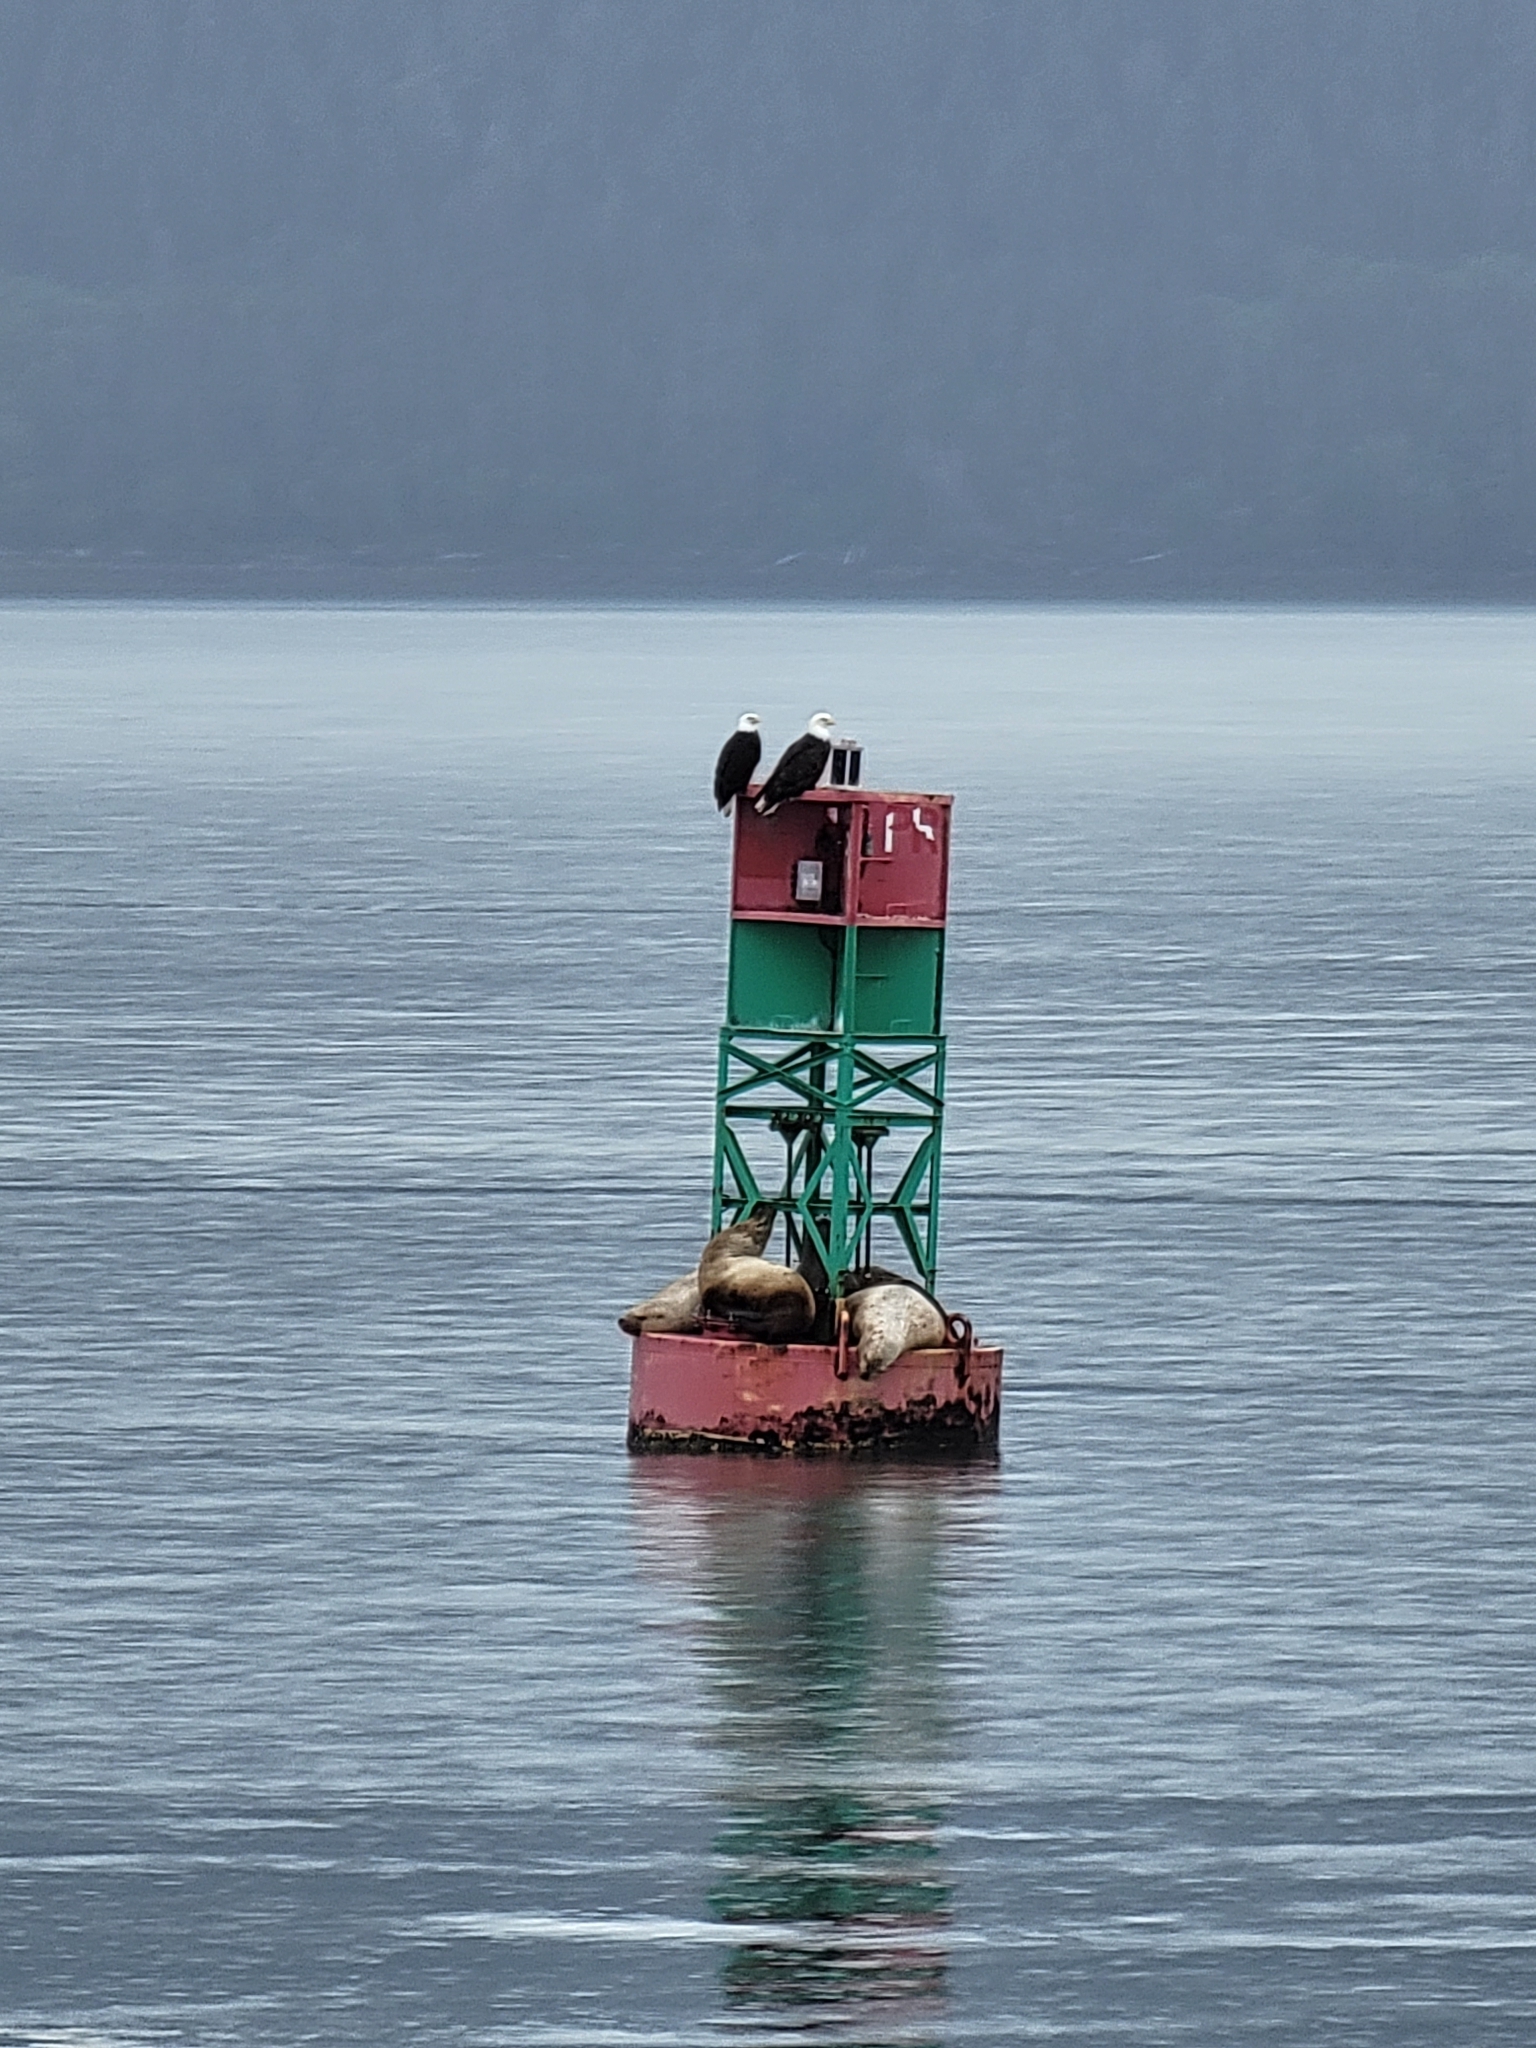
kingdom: Animalia
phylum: Chordata
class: Mammalia
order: Carnivora
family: Otariidae
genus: Eumetopias
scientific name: Eumetopias jubatus
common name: Steller sea lion
